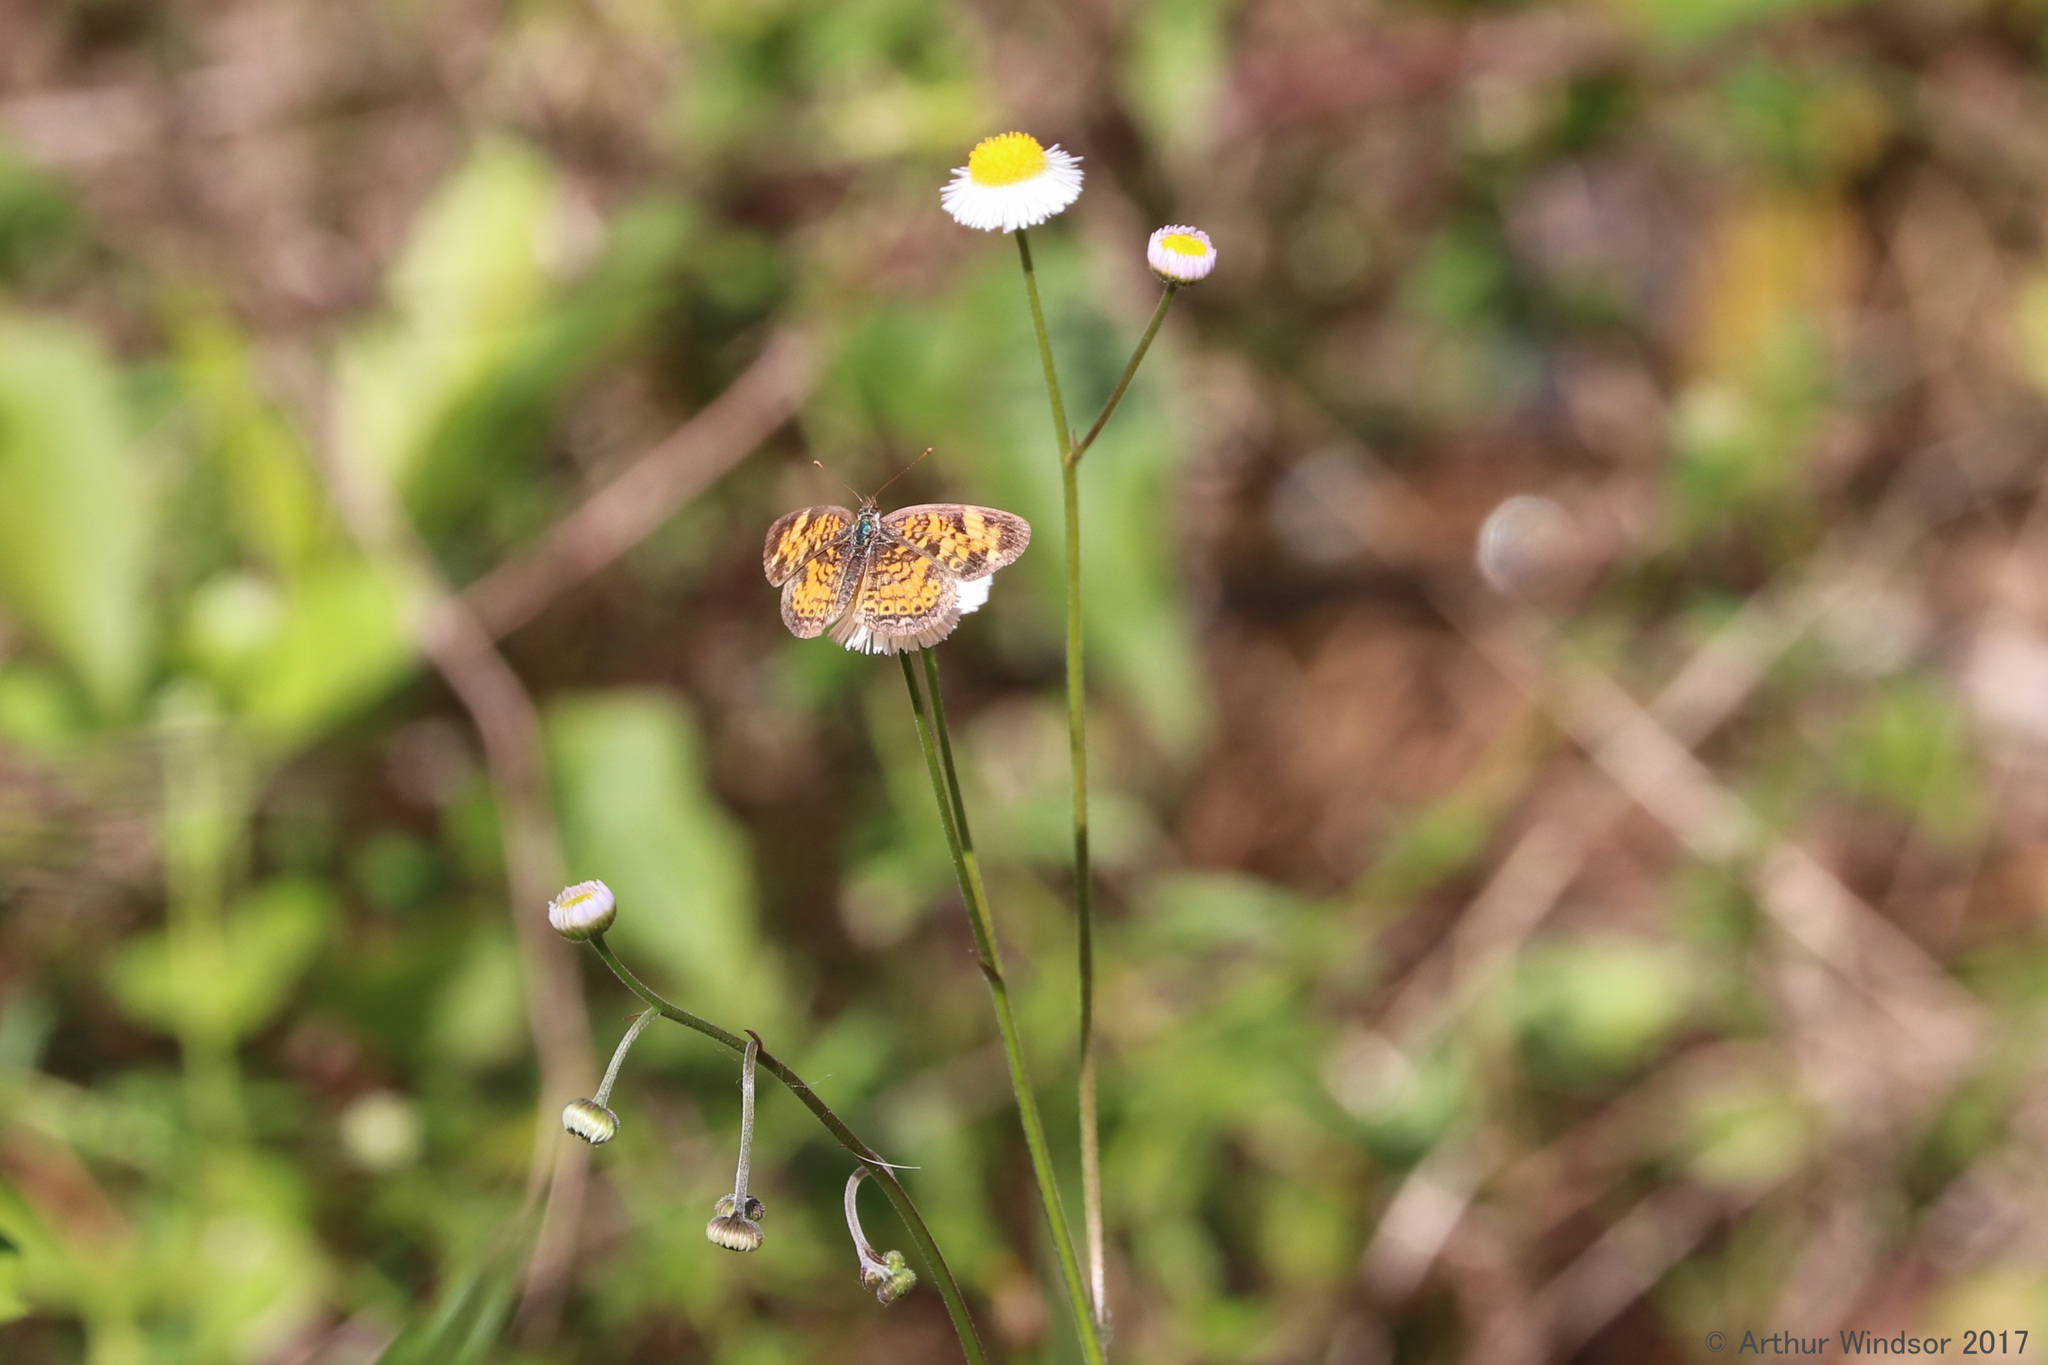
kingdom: Animalia
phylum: Arthropoda
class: Insecta
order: Lepidoptera
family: Nymphalidae
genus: Phyciodes
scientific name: Phyciodes tharos
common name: Pearl crescent
